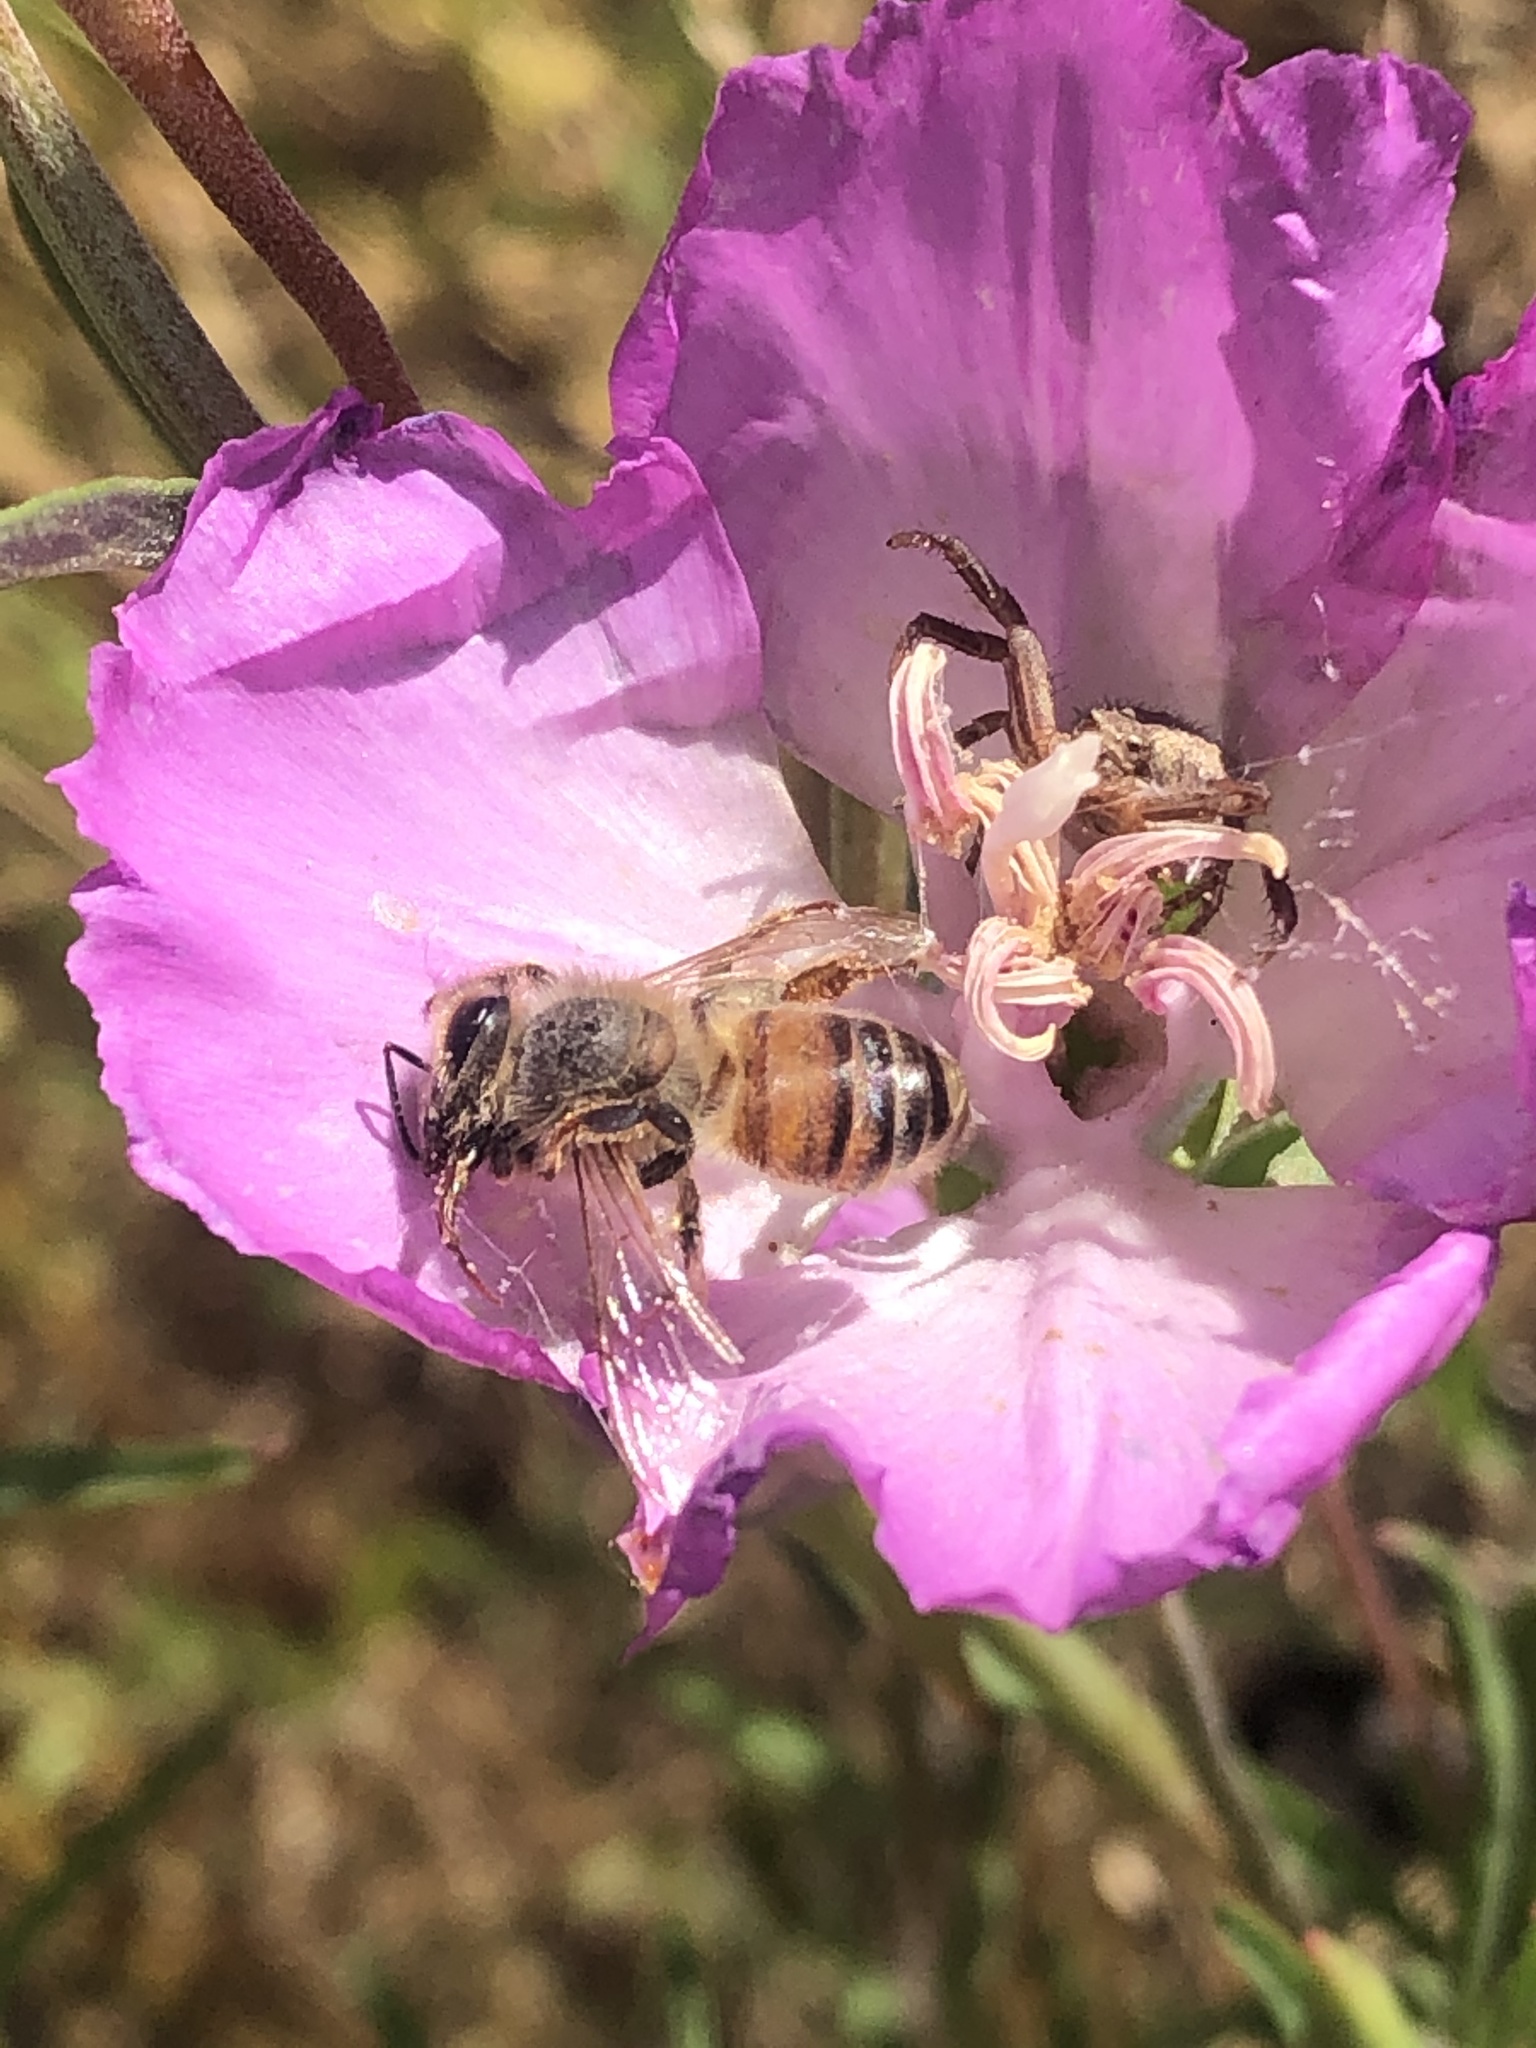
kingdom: Animalia
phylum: Arthropoda
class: Insecta
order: Hymenoptera
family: Apidae
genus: Apis
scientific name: Apis mellifera
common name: Honey bee
